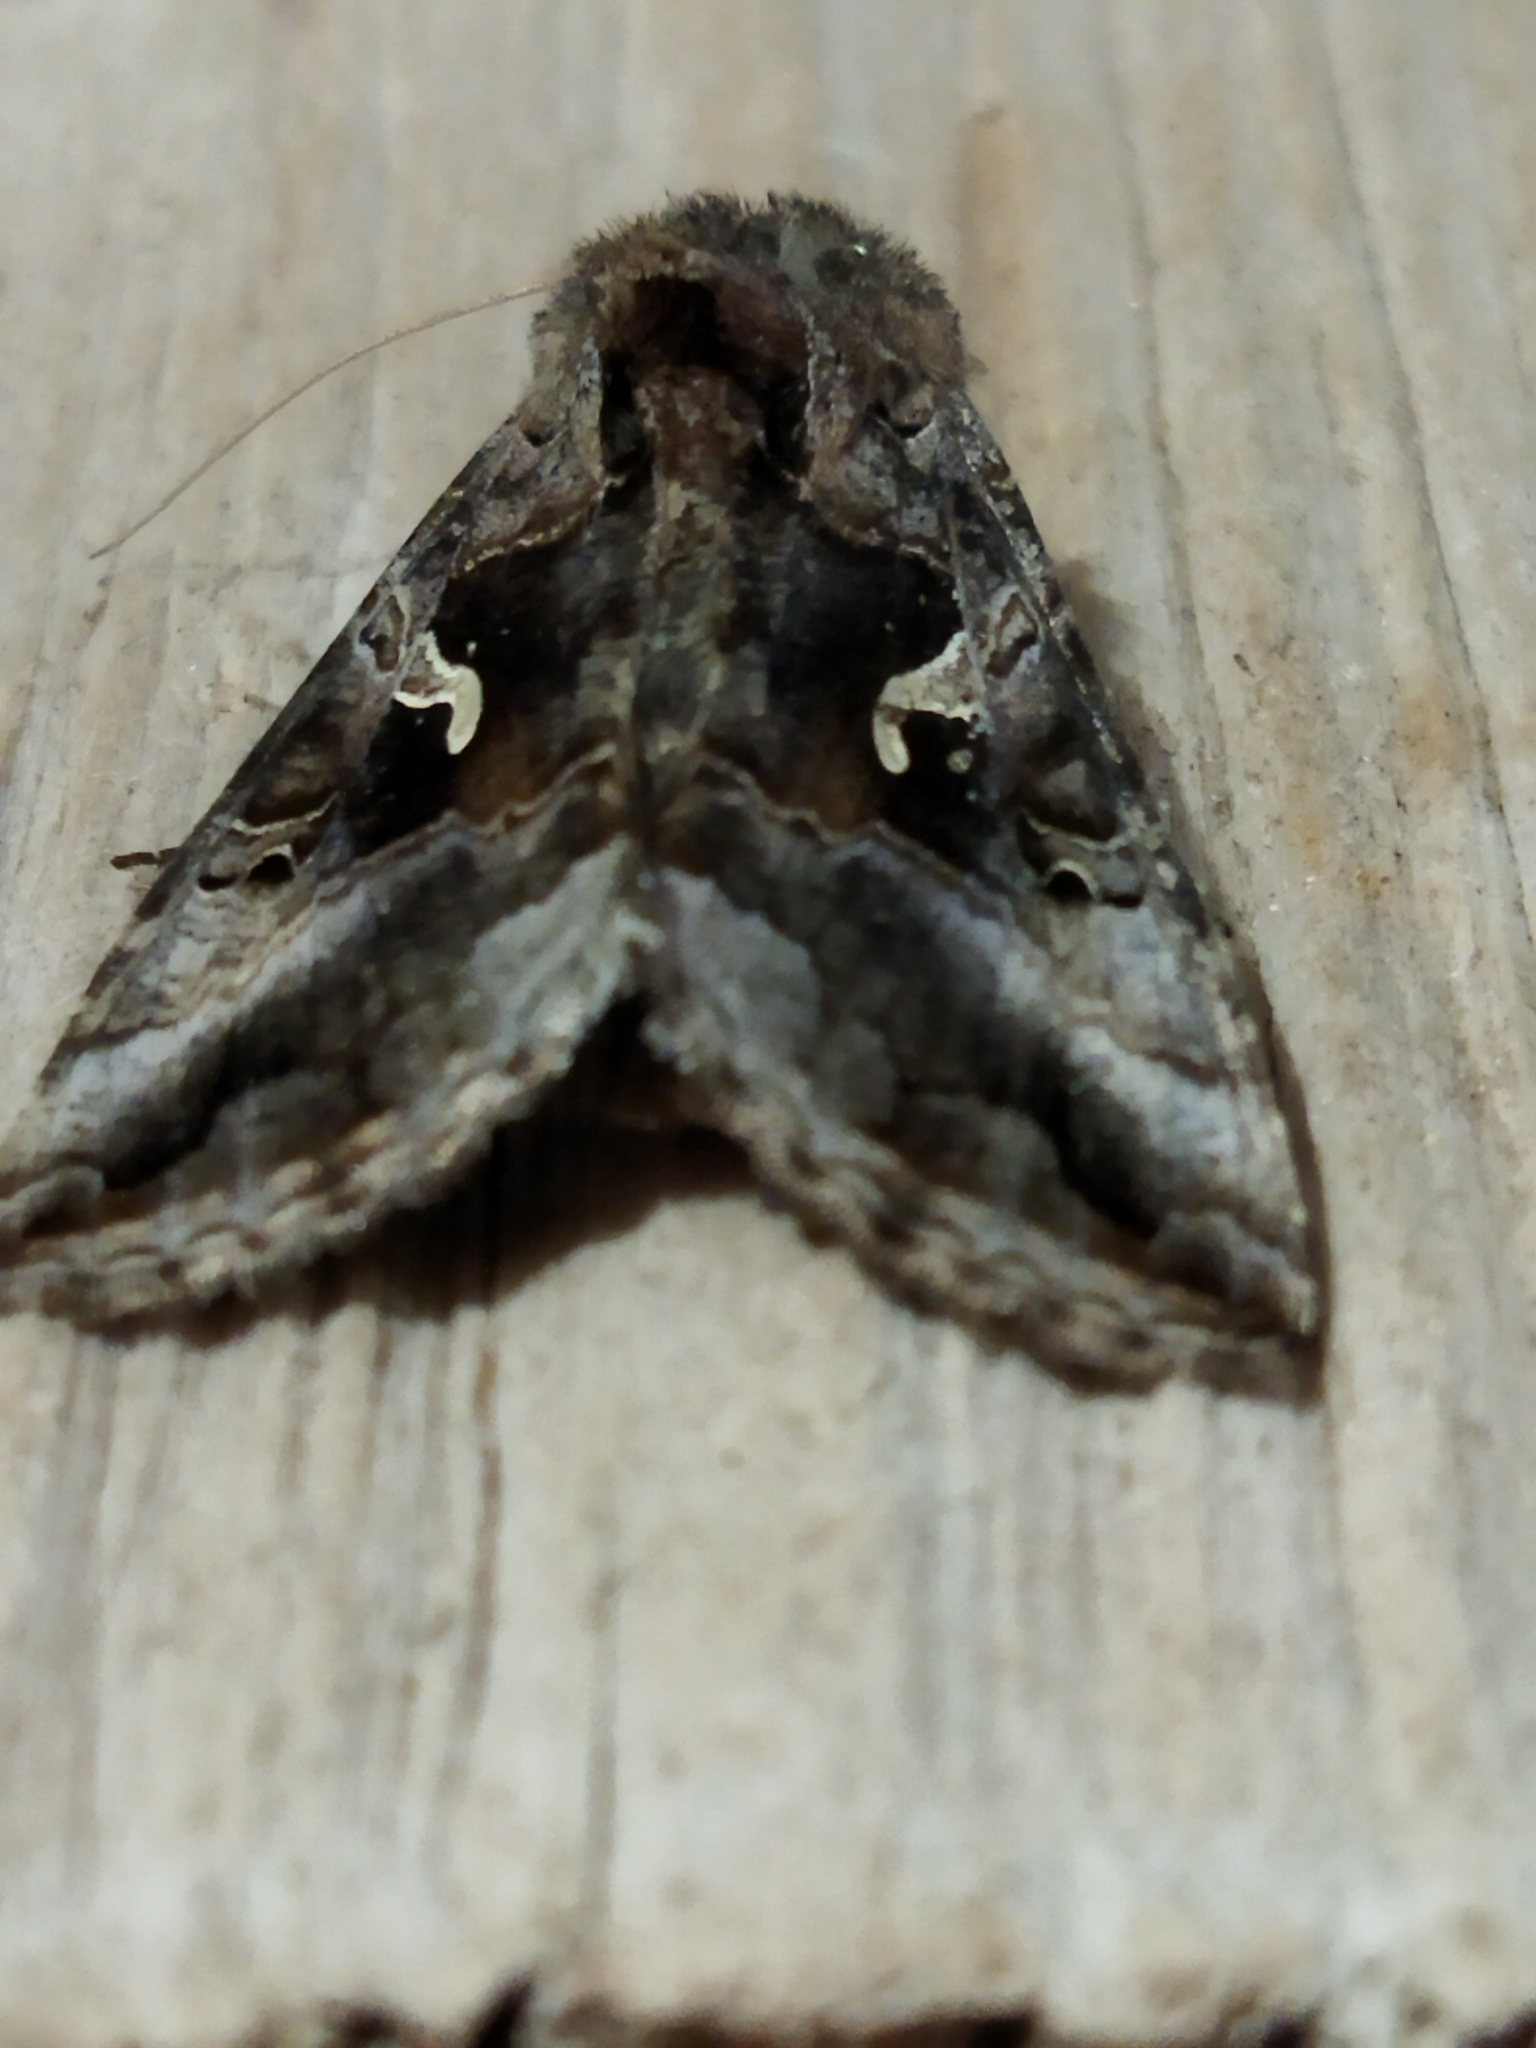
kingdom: Animalia
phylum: Arthropoda
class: Insecta
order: Lepidoptera
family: Noctuidae
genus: Autographa
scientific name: Autographa gamma
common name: Silver y
